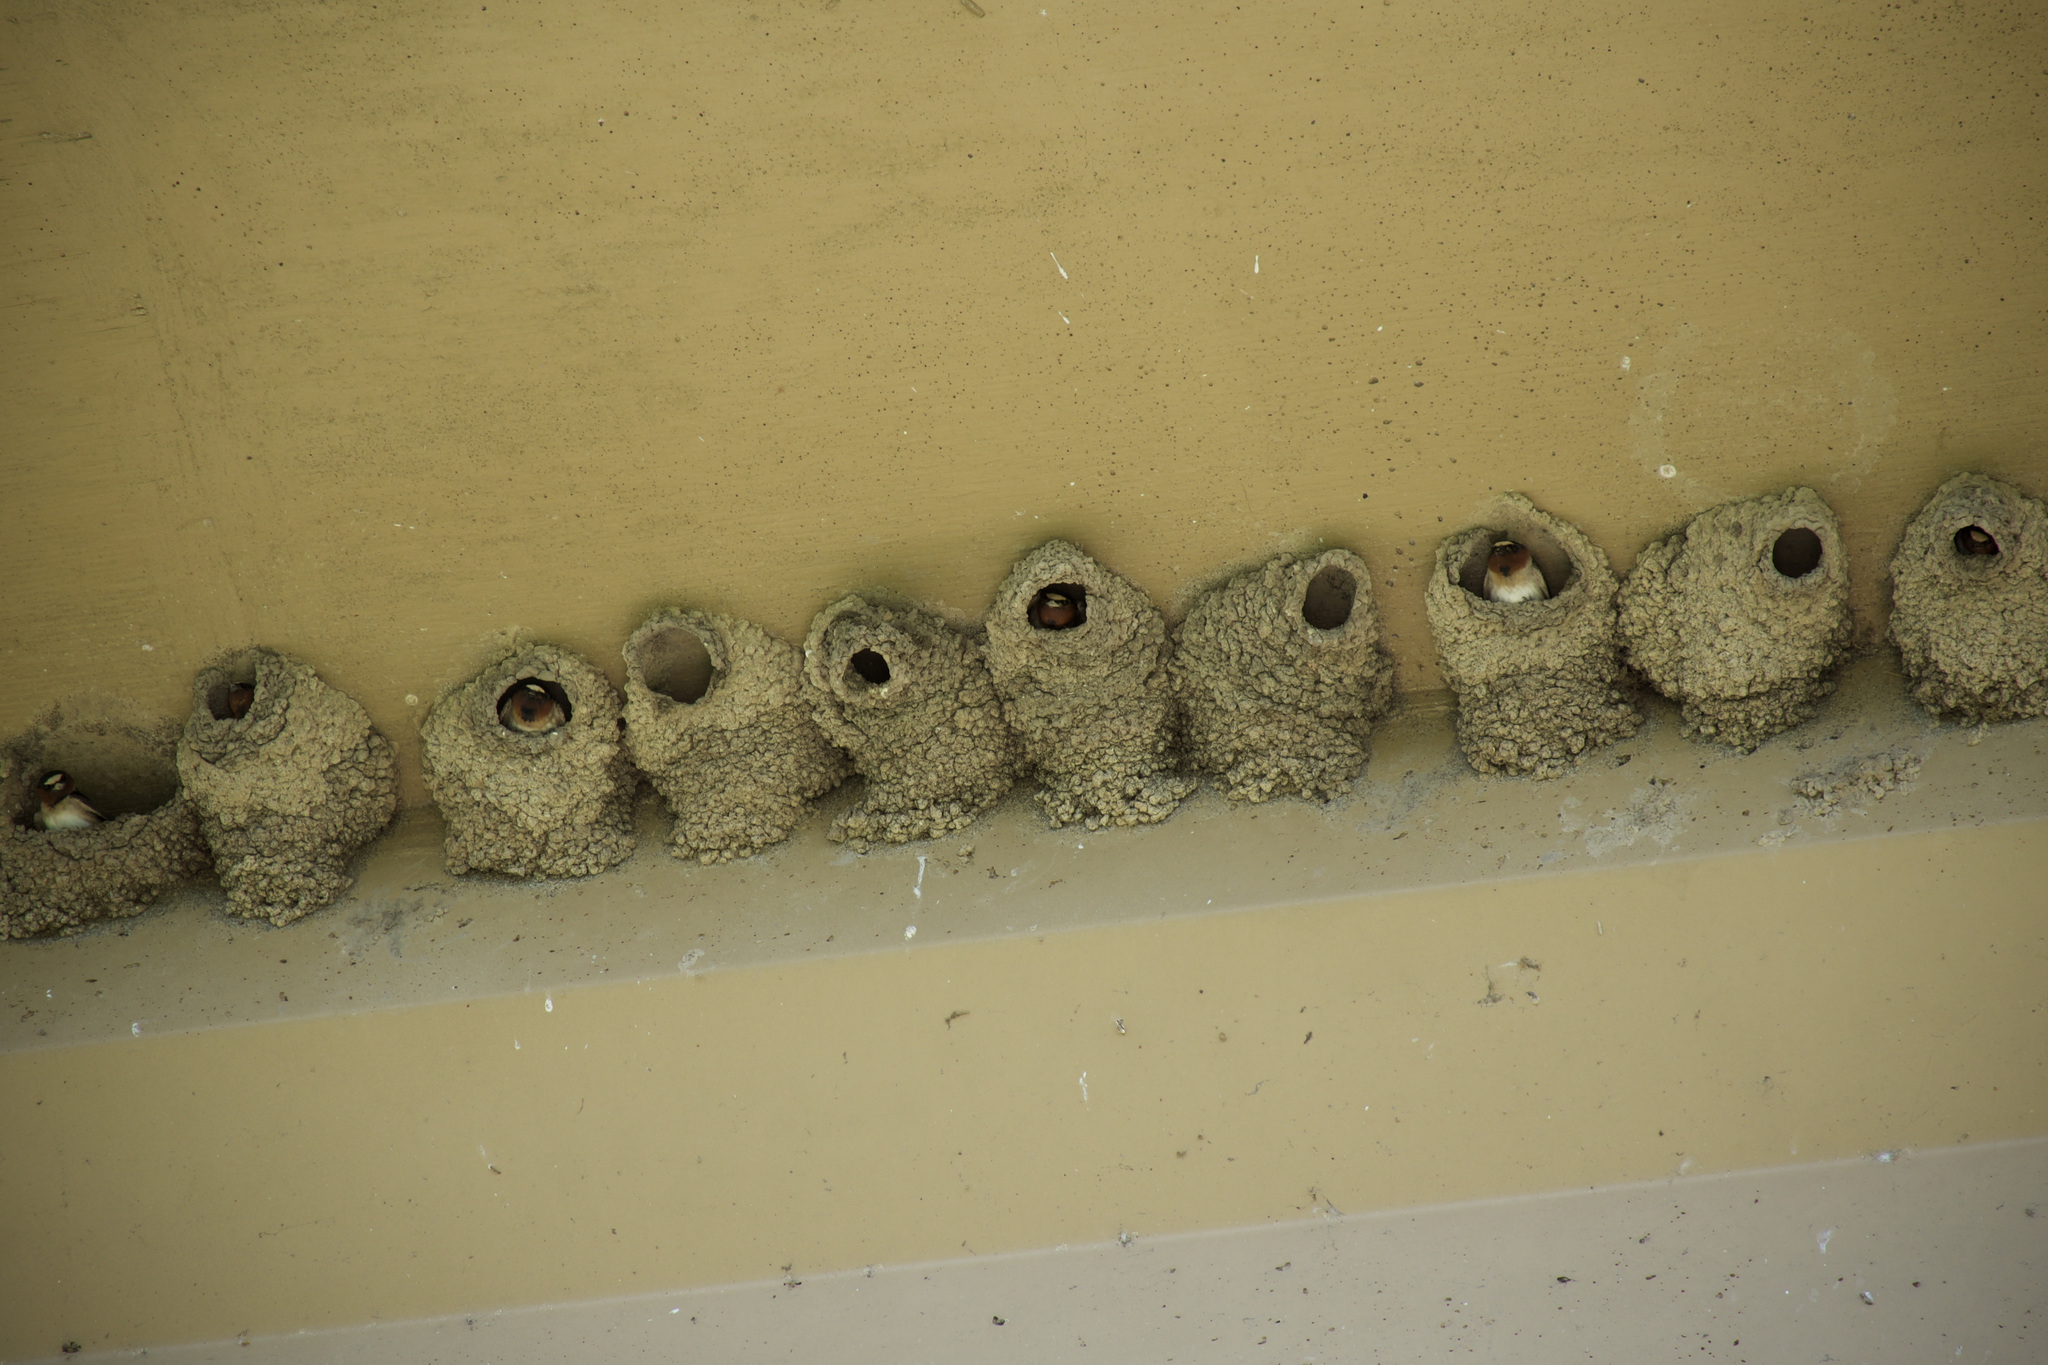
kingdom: Animalia
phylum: Chordata
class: Aves
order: Passeriformes
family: Hirundinidae
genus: Petrochelidon
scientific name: Petrochelidon pyrrhonota
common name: American cliff swallow
